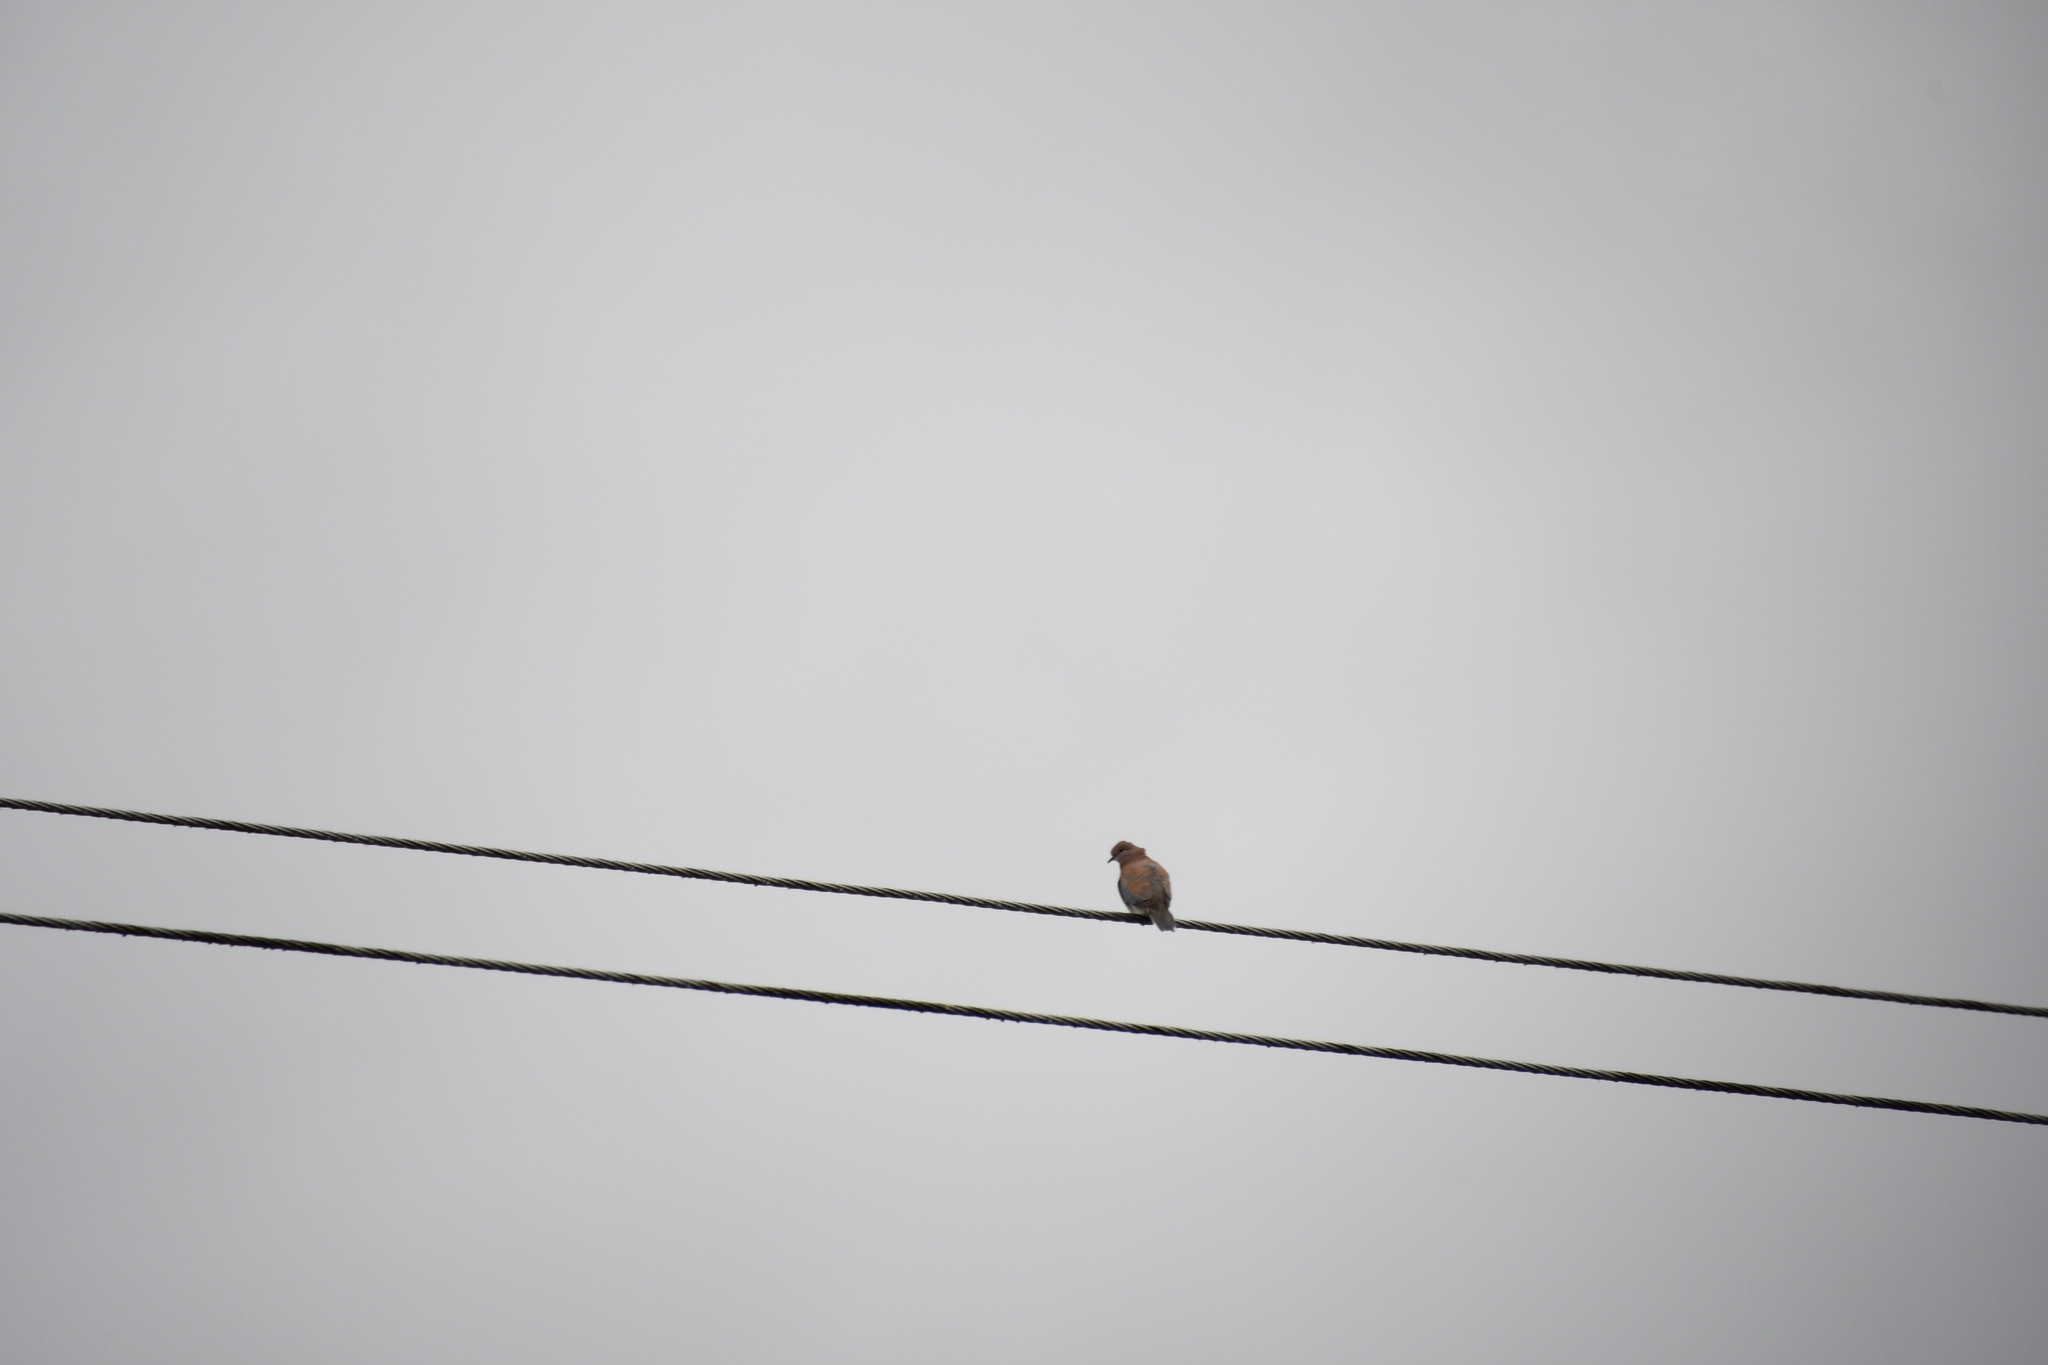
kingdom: Animalia
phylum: Chordata
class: Aves
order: Columbiformes
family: Columbidae
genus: Spilopelia
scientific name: Spilopelia senegalensis
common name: Laughing dove
